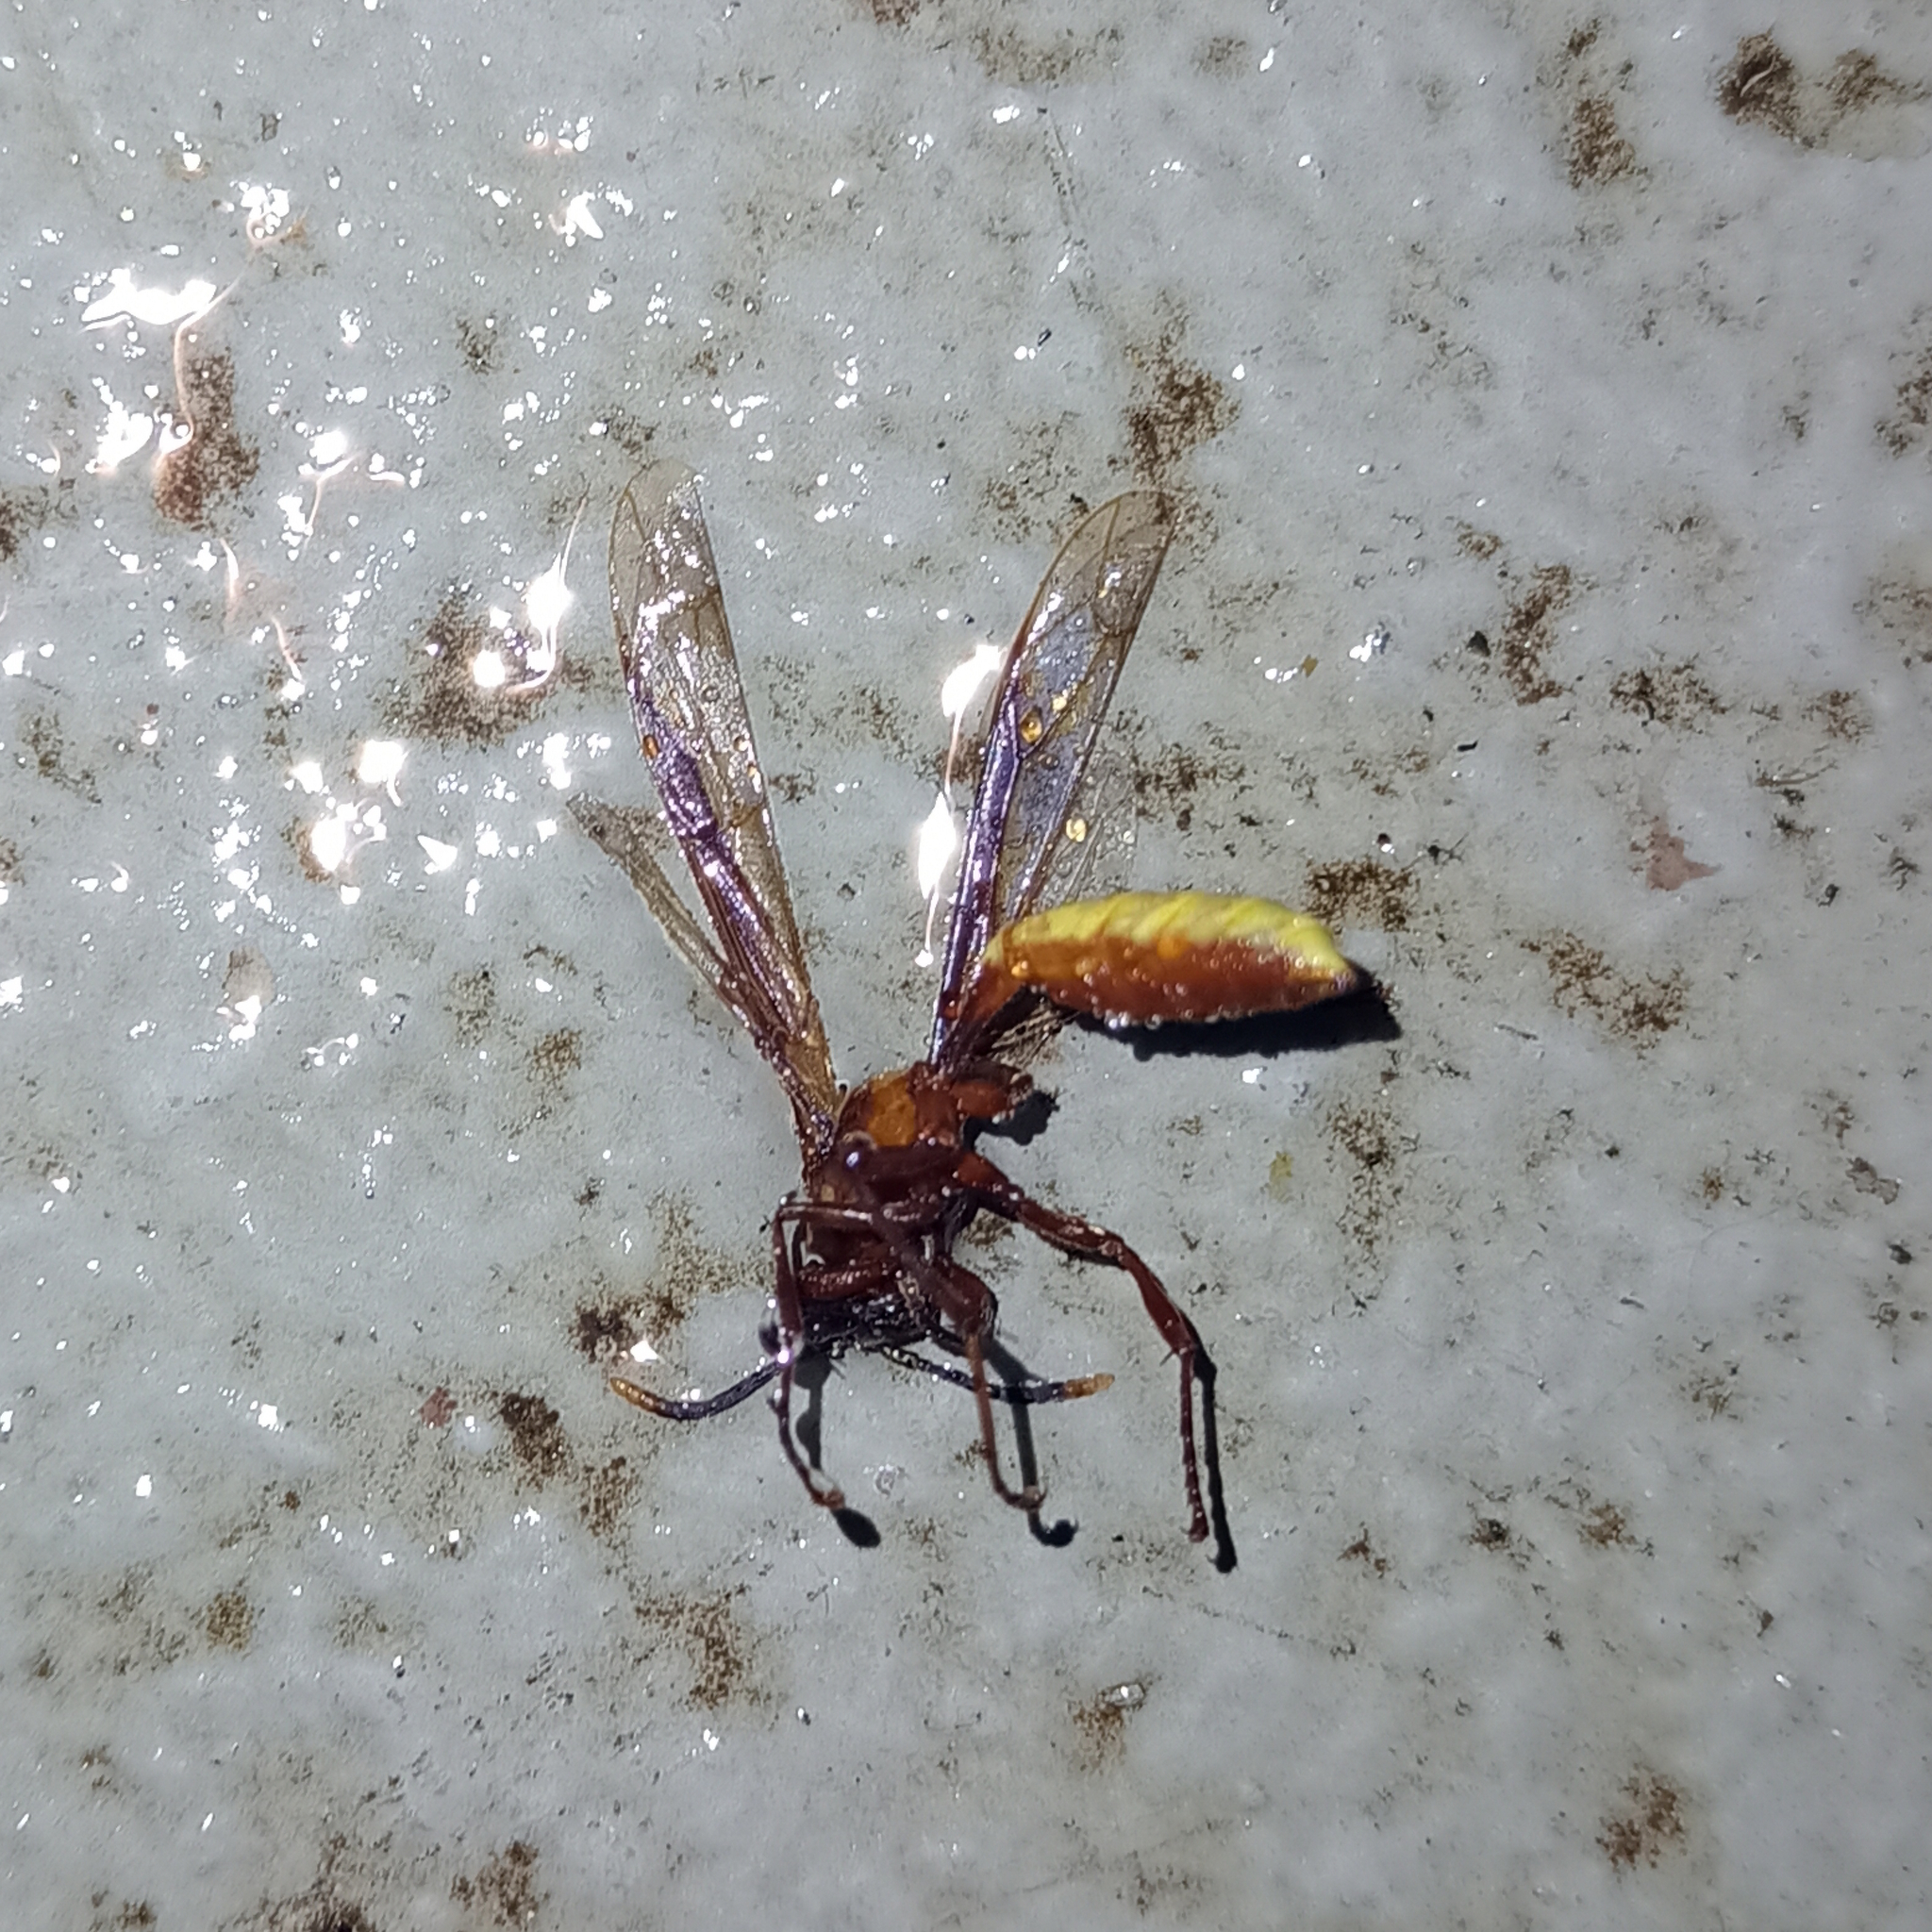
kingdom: Animalia
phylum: Arthropoda
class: Insecta
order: Hymenoptera
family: Vespidae
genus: Apoica
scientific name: Apoica
